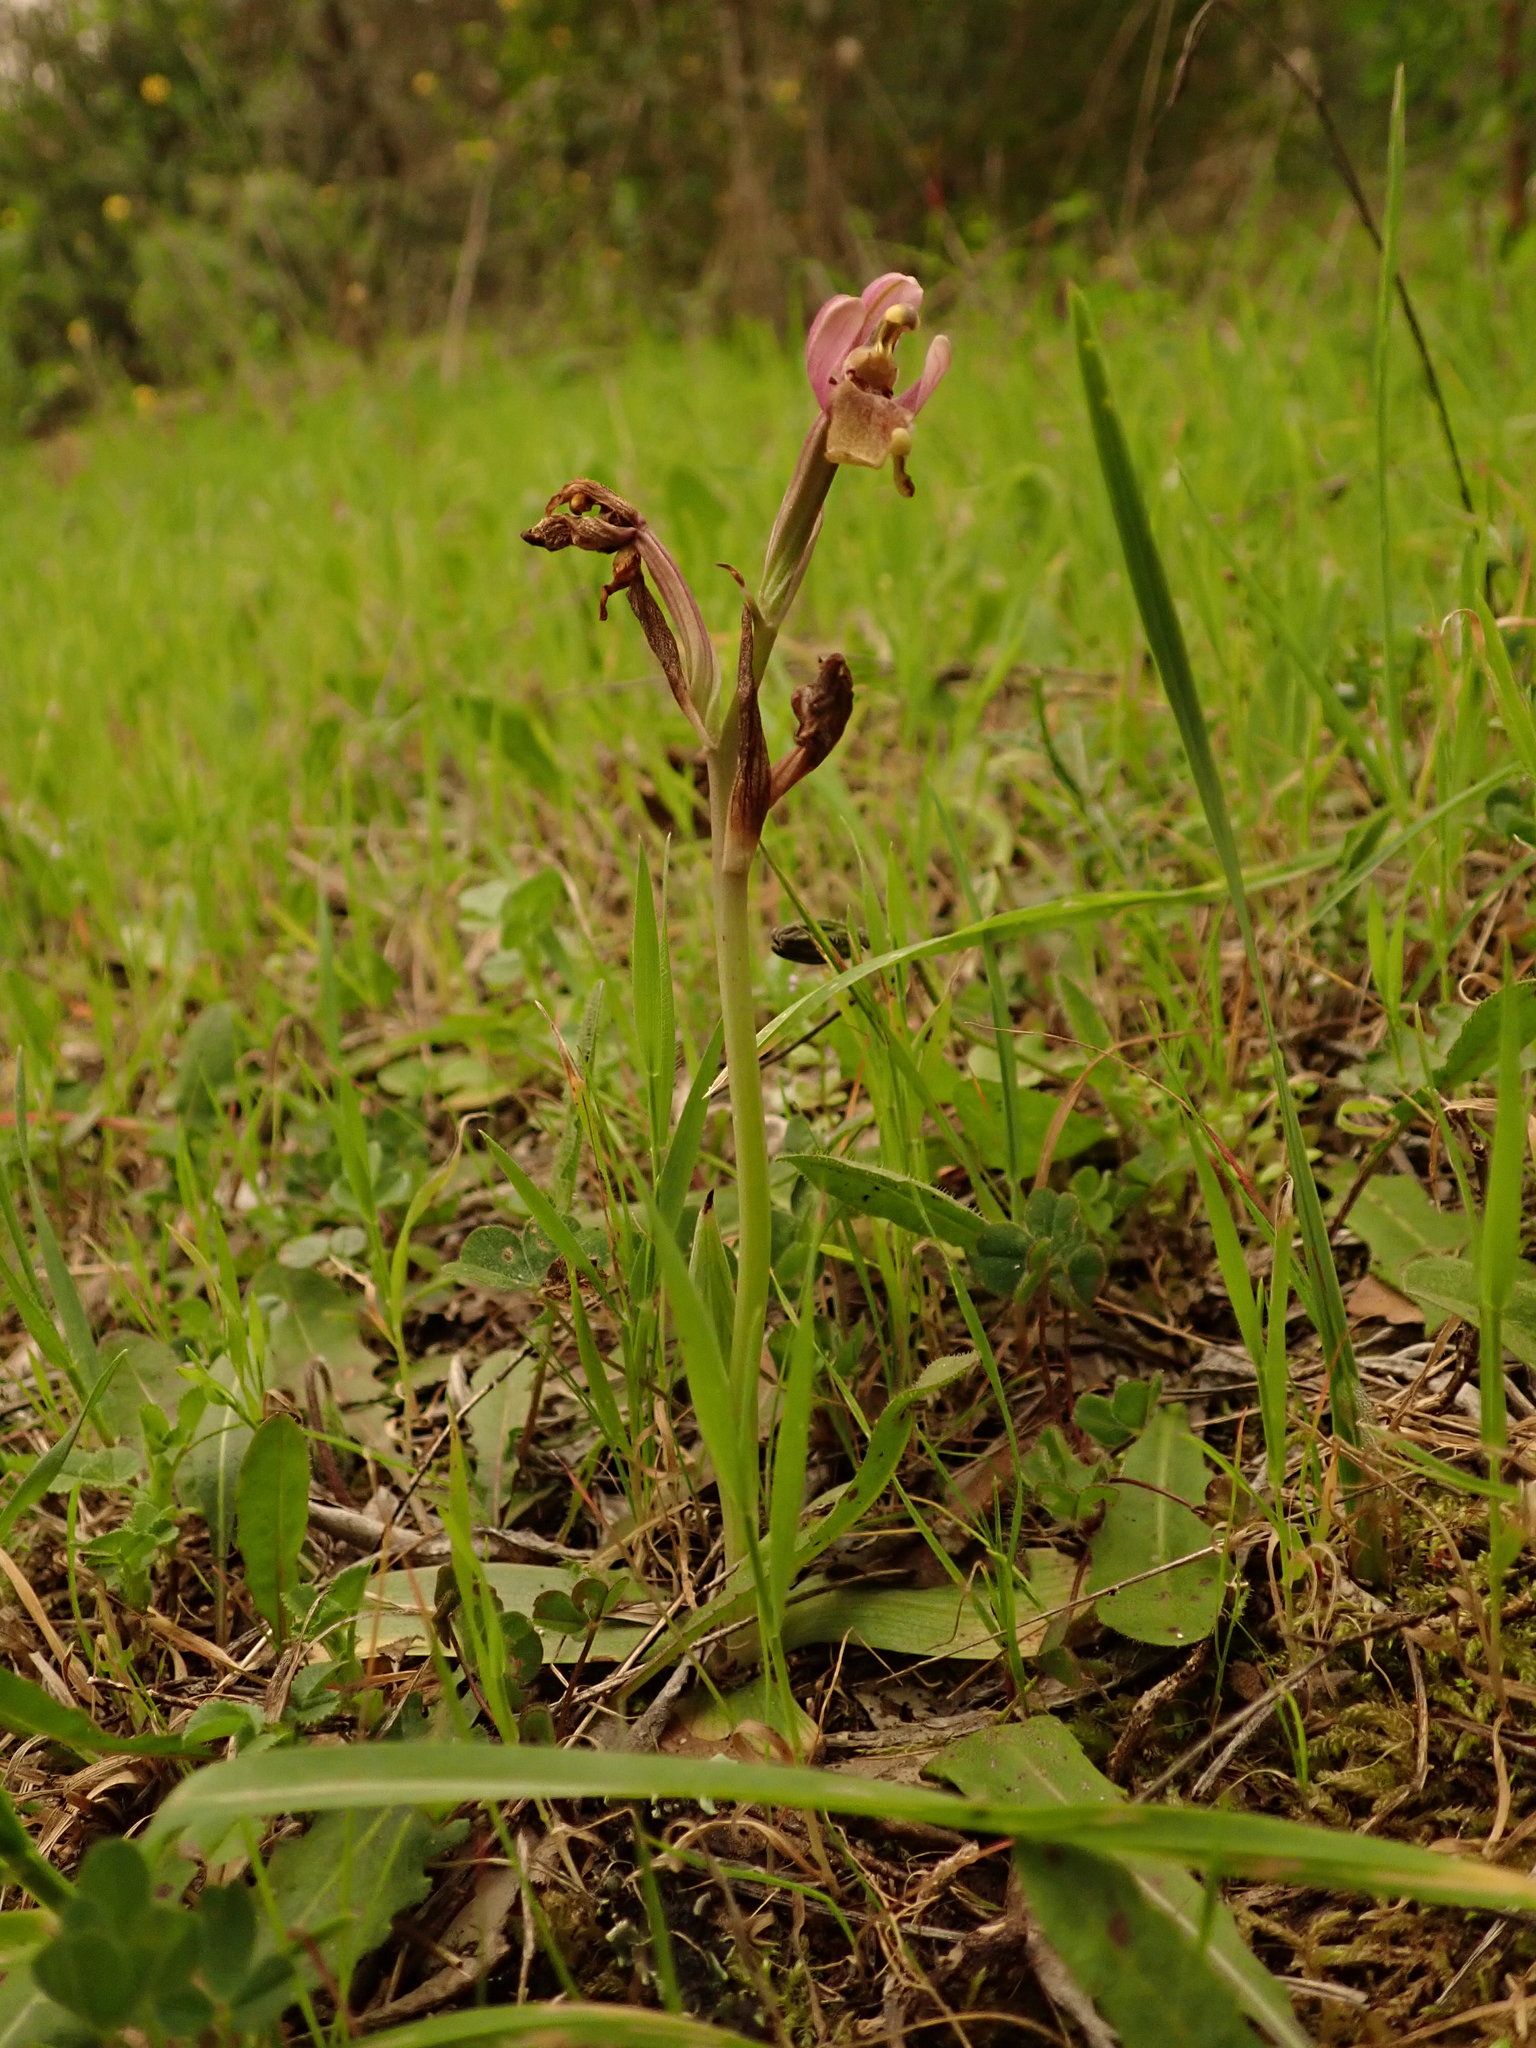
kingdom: Plantae
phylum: Tracheophyta
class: Liliopsida
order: Asparagales
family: Orchidaceae
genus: Ophrys
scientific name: Ophrys tenthredinifera
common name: Sawfly orchid
